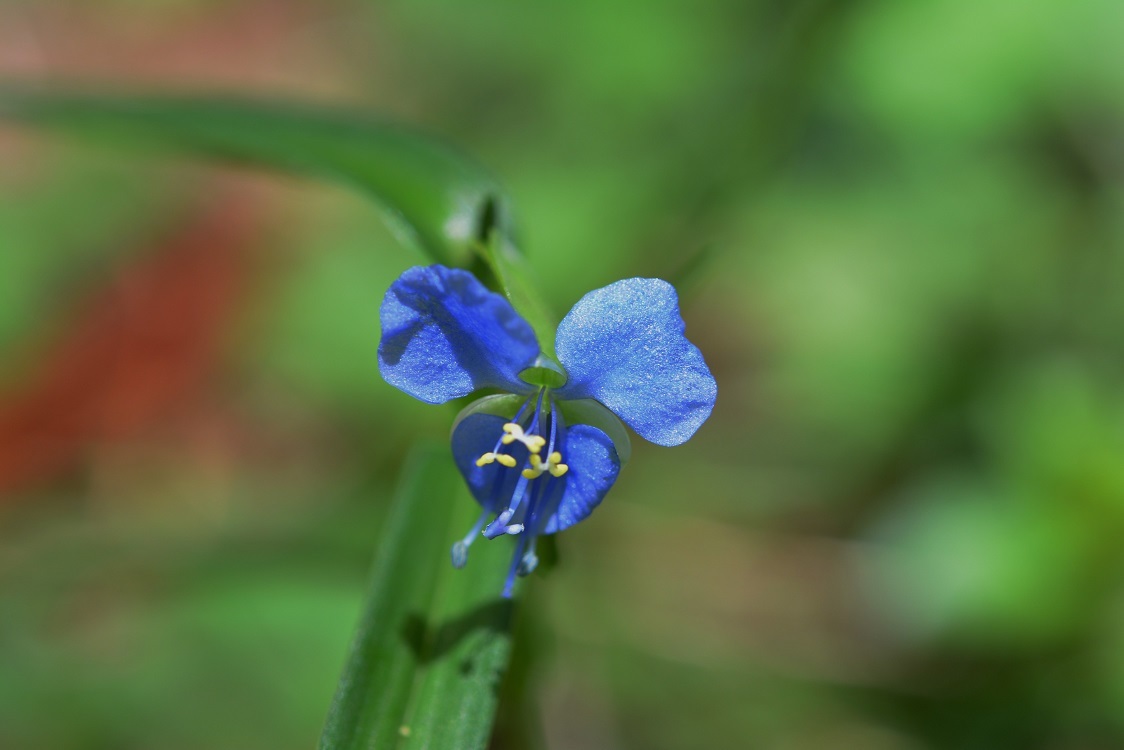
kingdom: Plantae
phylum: Tracheophyta
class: Liliopsida
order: Commelinales
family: Commelinaceae
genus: Commelina
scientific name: Commelina diffusa
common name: Climbing dayflower
